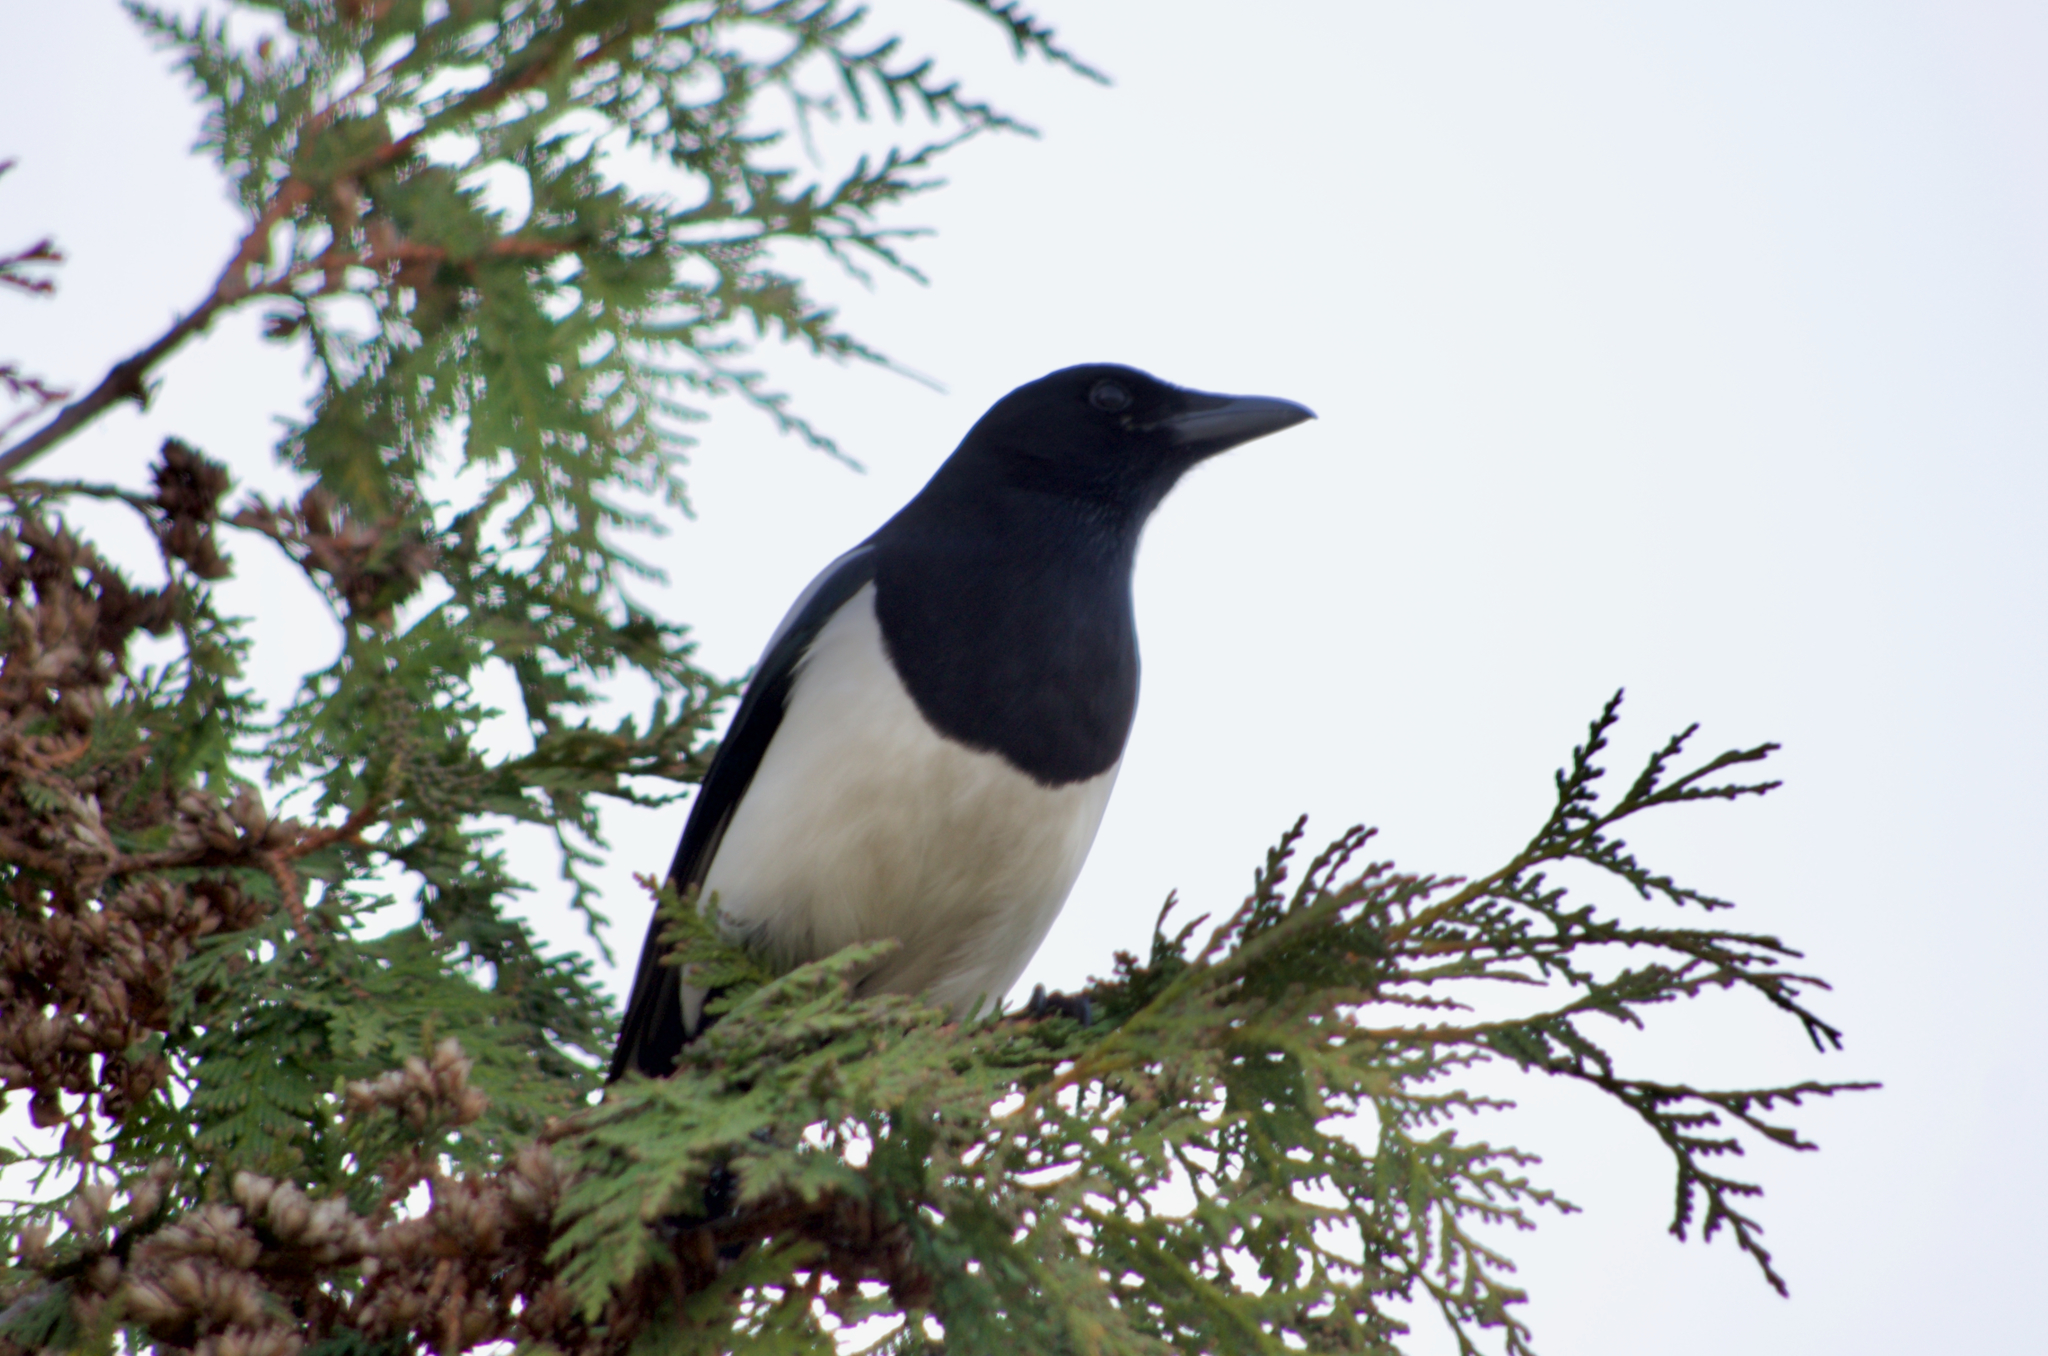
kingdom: Animalia
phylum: Chordata
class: Aves
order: Passeriformes
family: Corvidae
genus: Pica
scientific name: Pica pica
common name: Eurasian magpie
